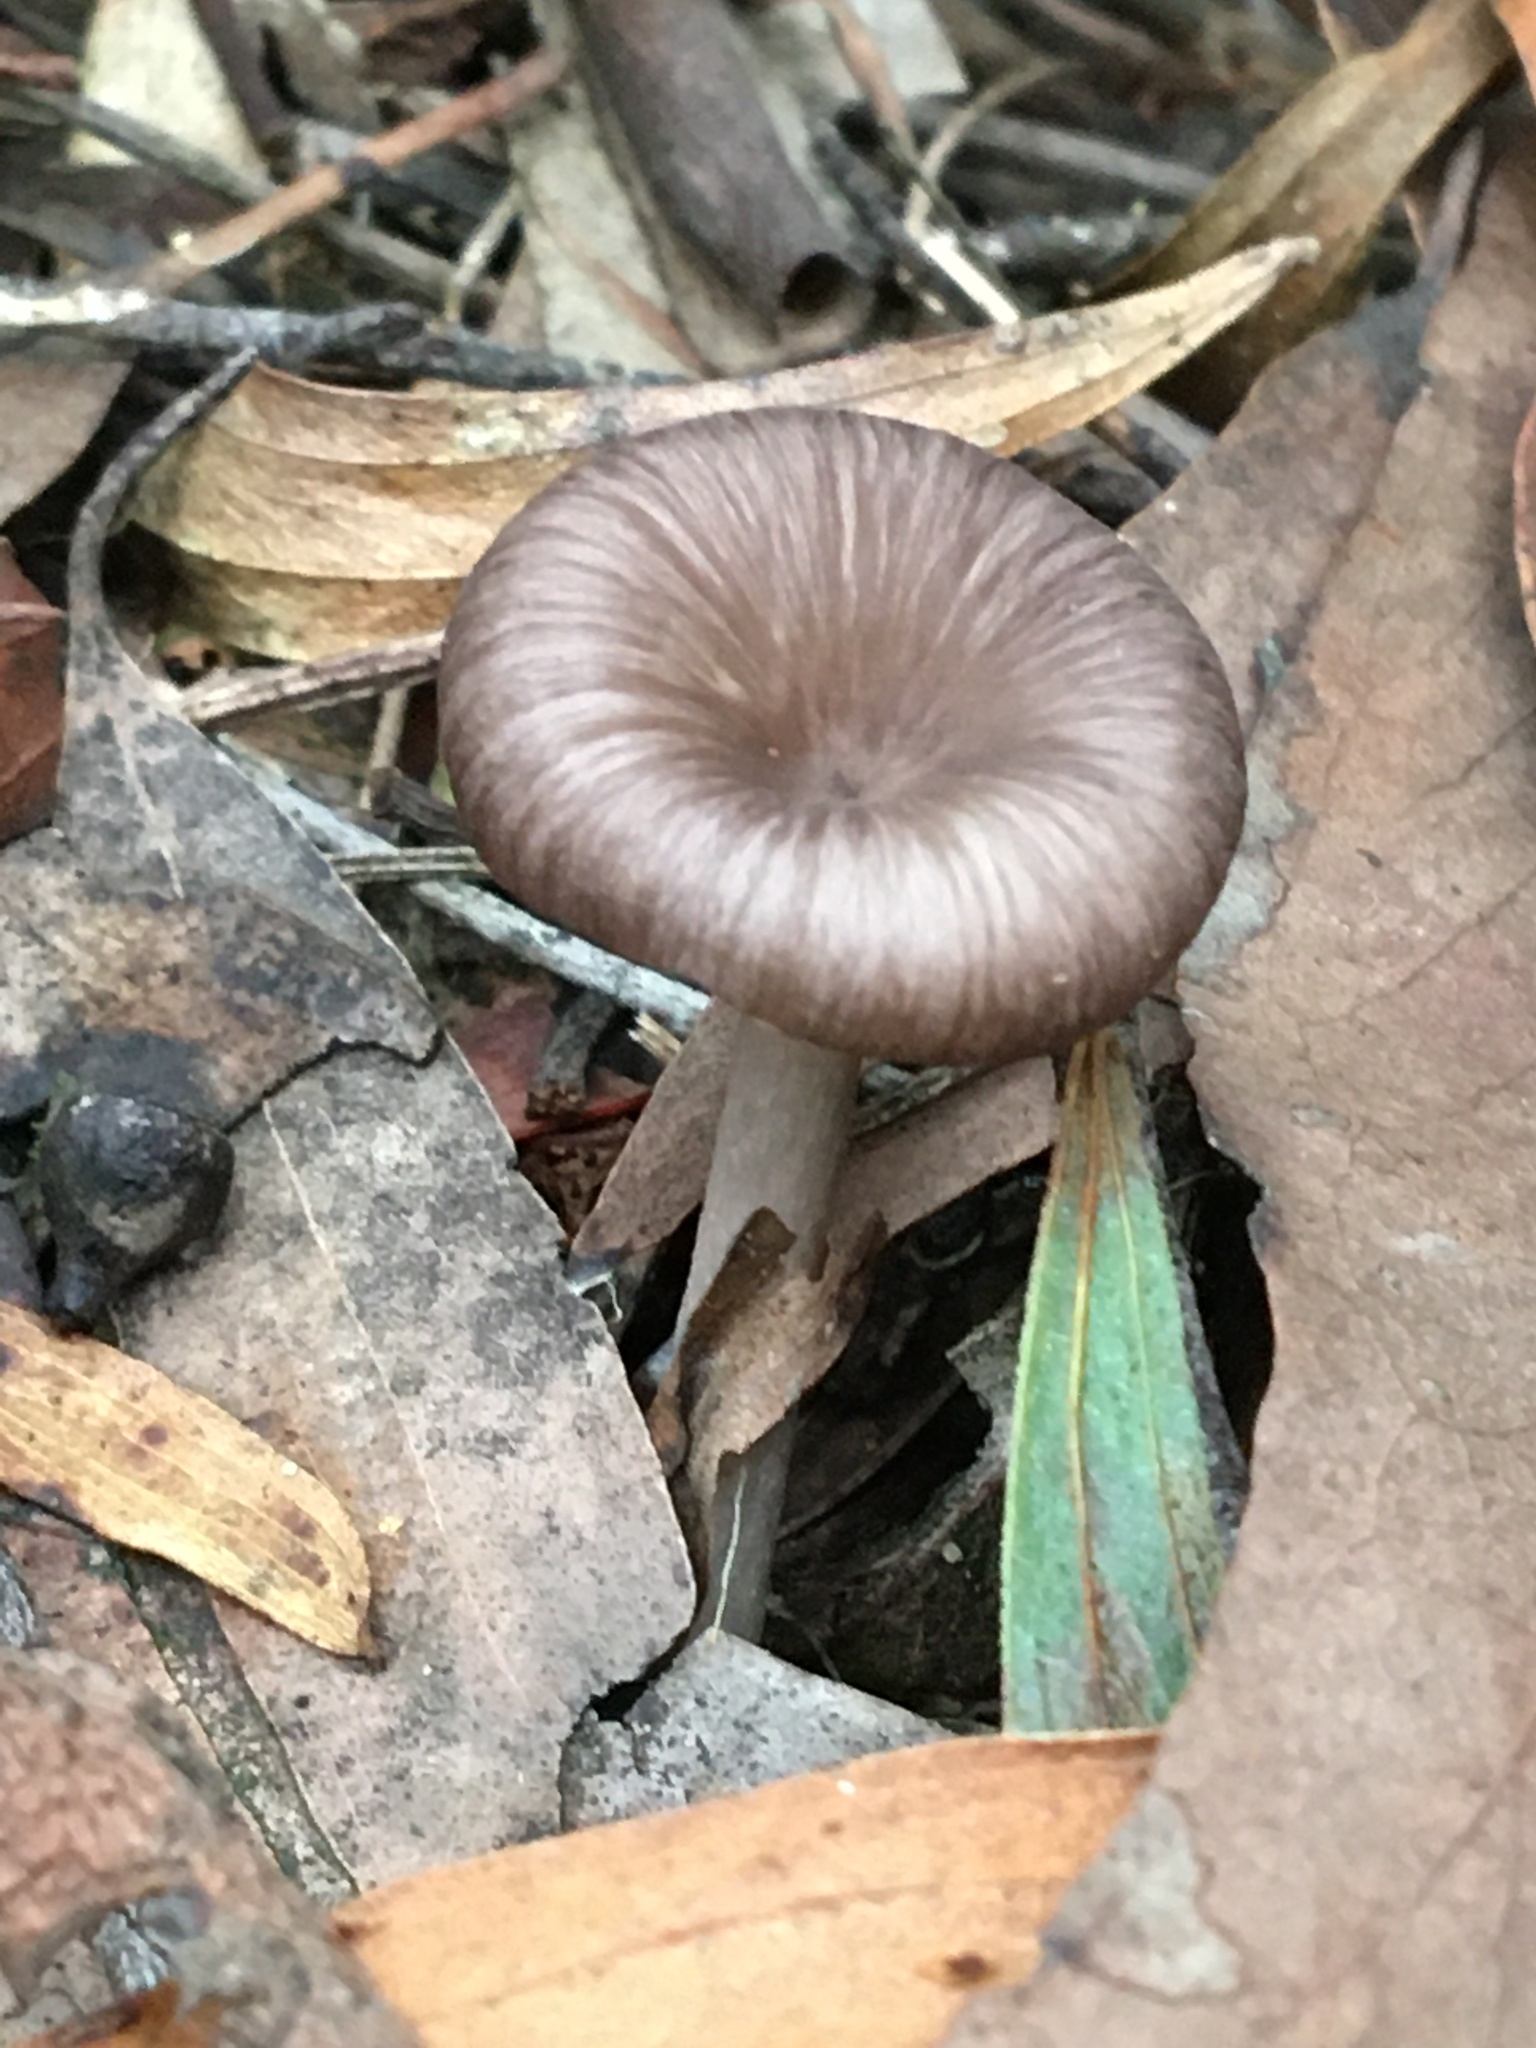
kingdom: Fungi
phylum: Basidiomycota
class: Agaricomycetes
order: Agaricales
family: Marasmiaceae
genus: Trogia
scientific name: Trogia straminea
